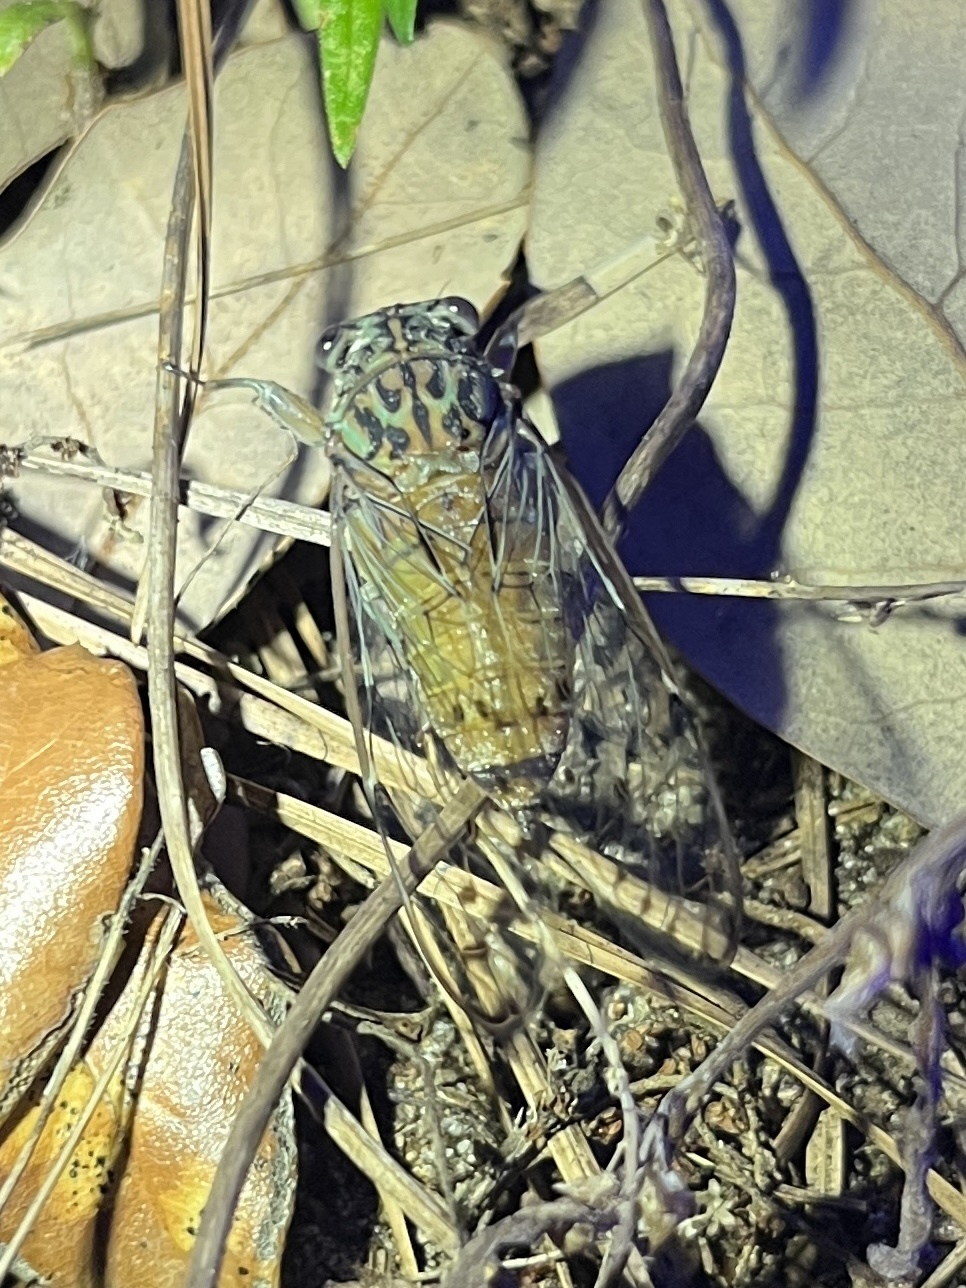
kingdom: Animalia
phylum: Arthropoda
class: Insecta
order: Hemiptera
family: Cicadidae
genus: Neocicada
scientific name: Neocicada hieroglyphica
